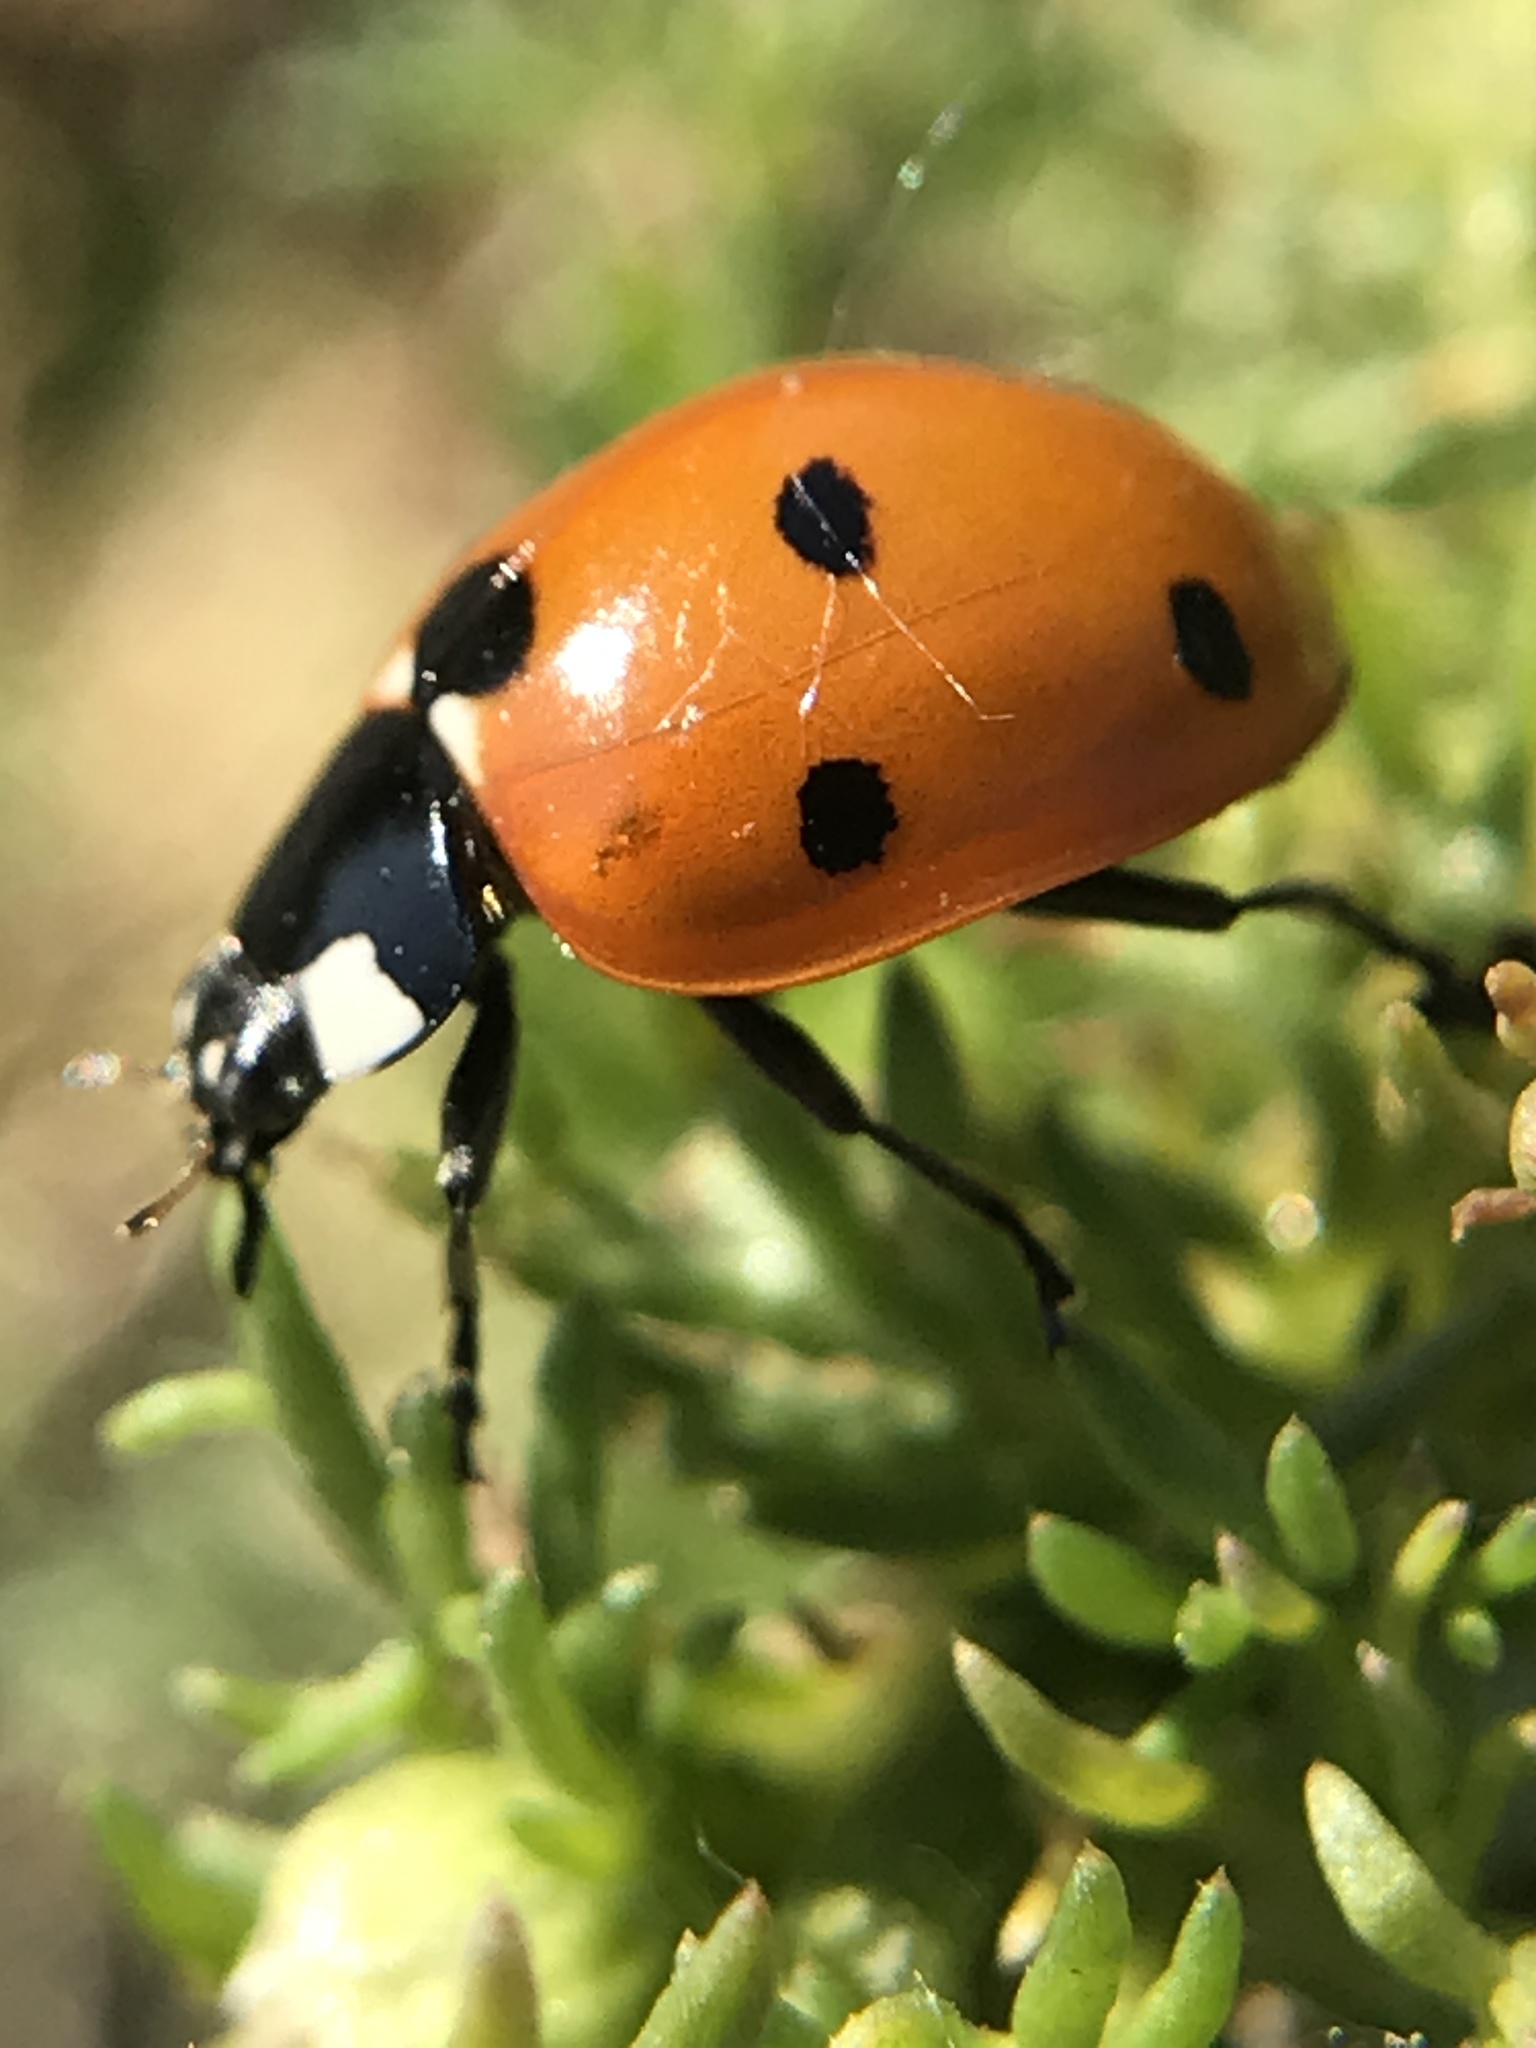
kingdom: Animalia
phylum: Arthropoda
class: Insecta
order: Coleoptera
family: Coccinellidae
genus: Coccinella
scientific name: Coccinella septempunctata
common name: Sevenspotted lady beetle
